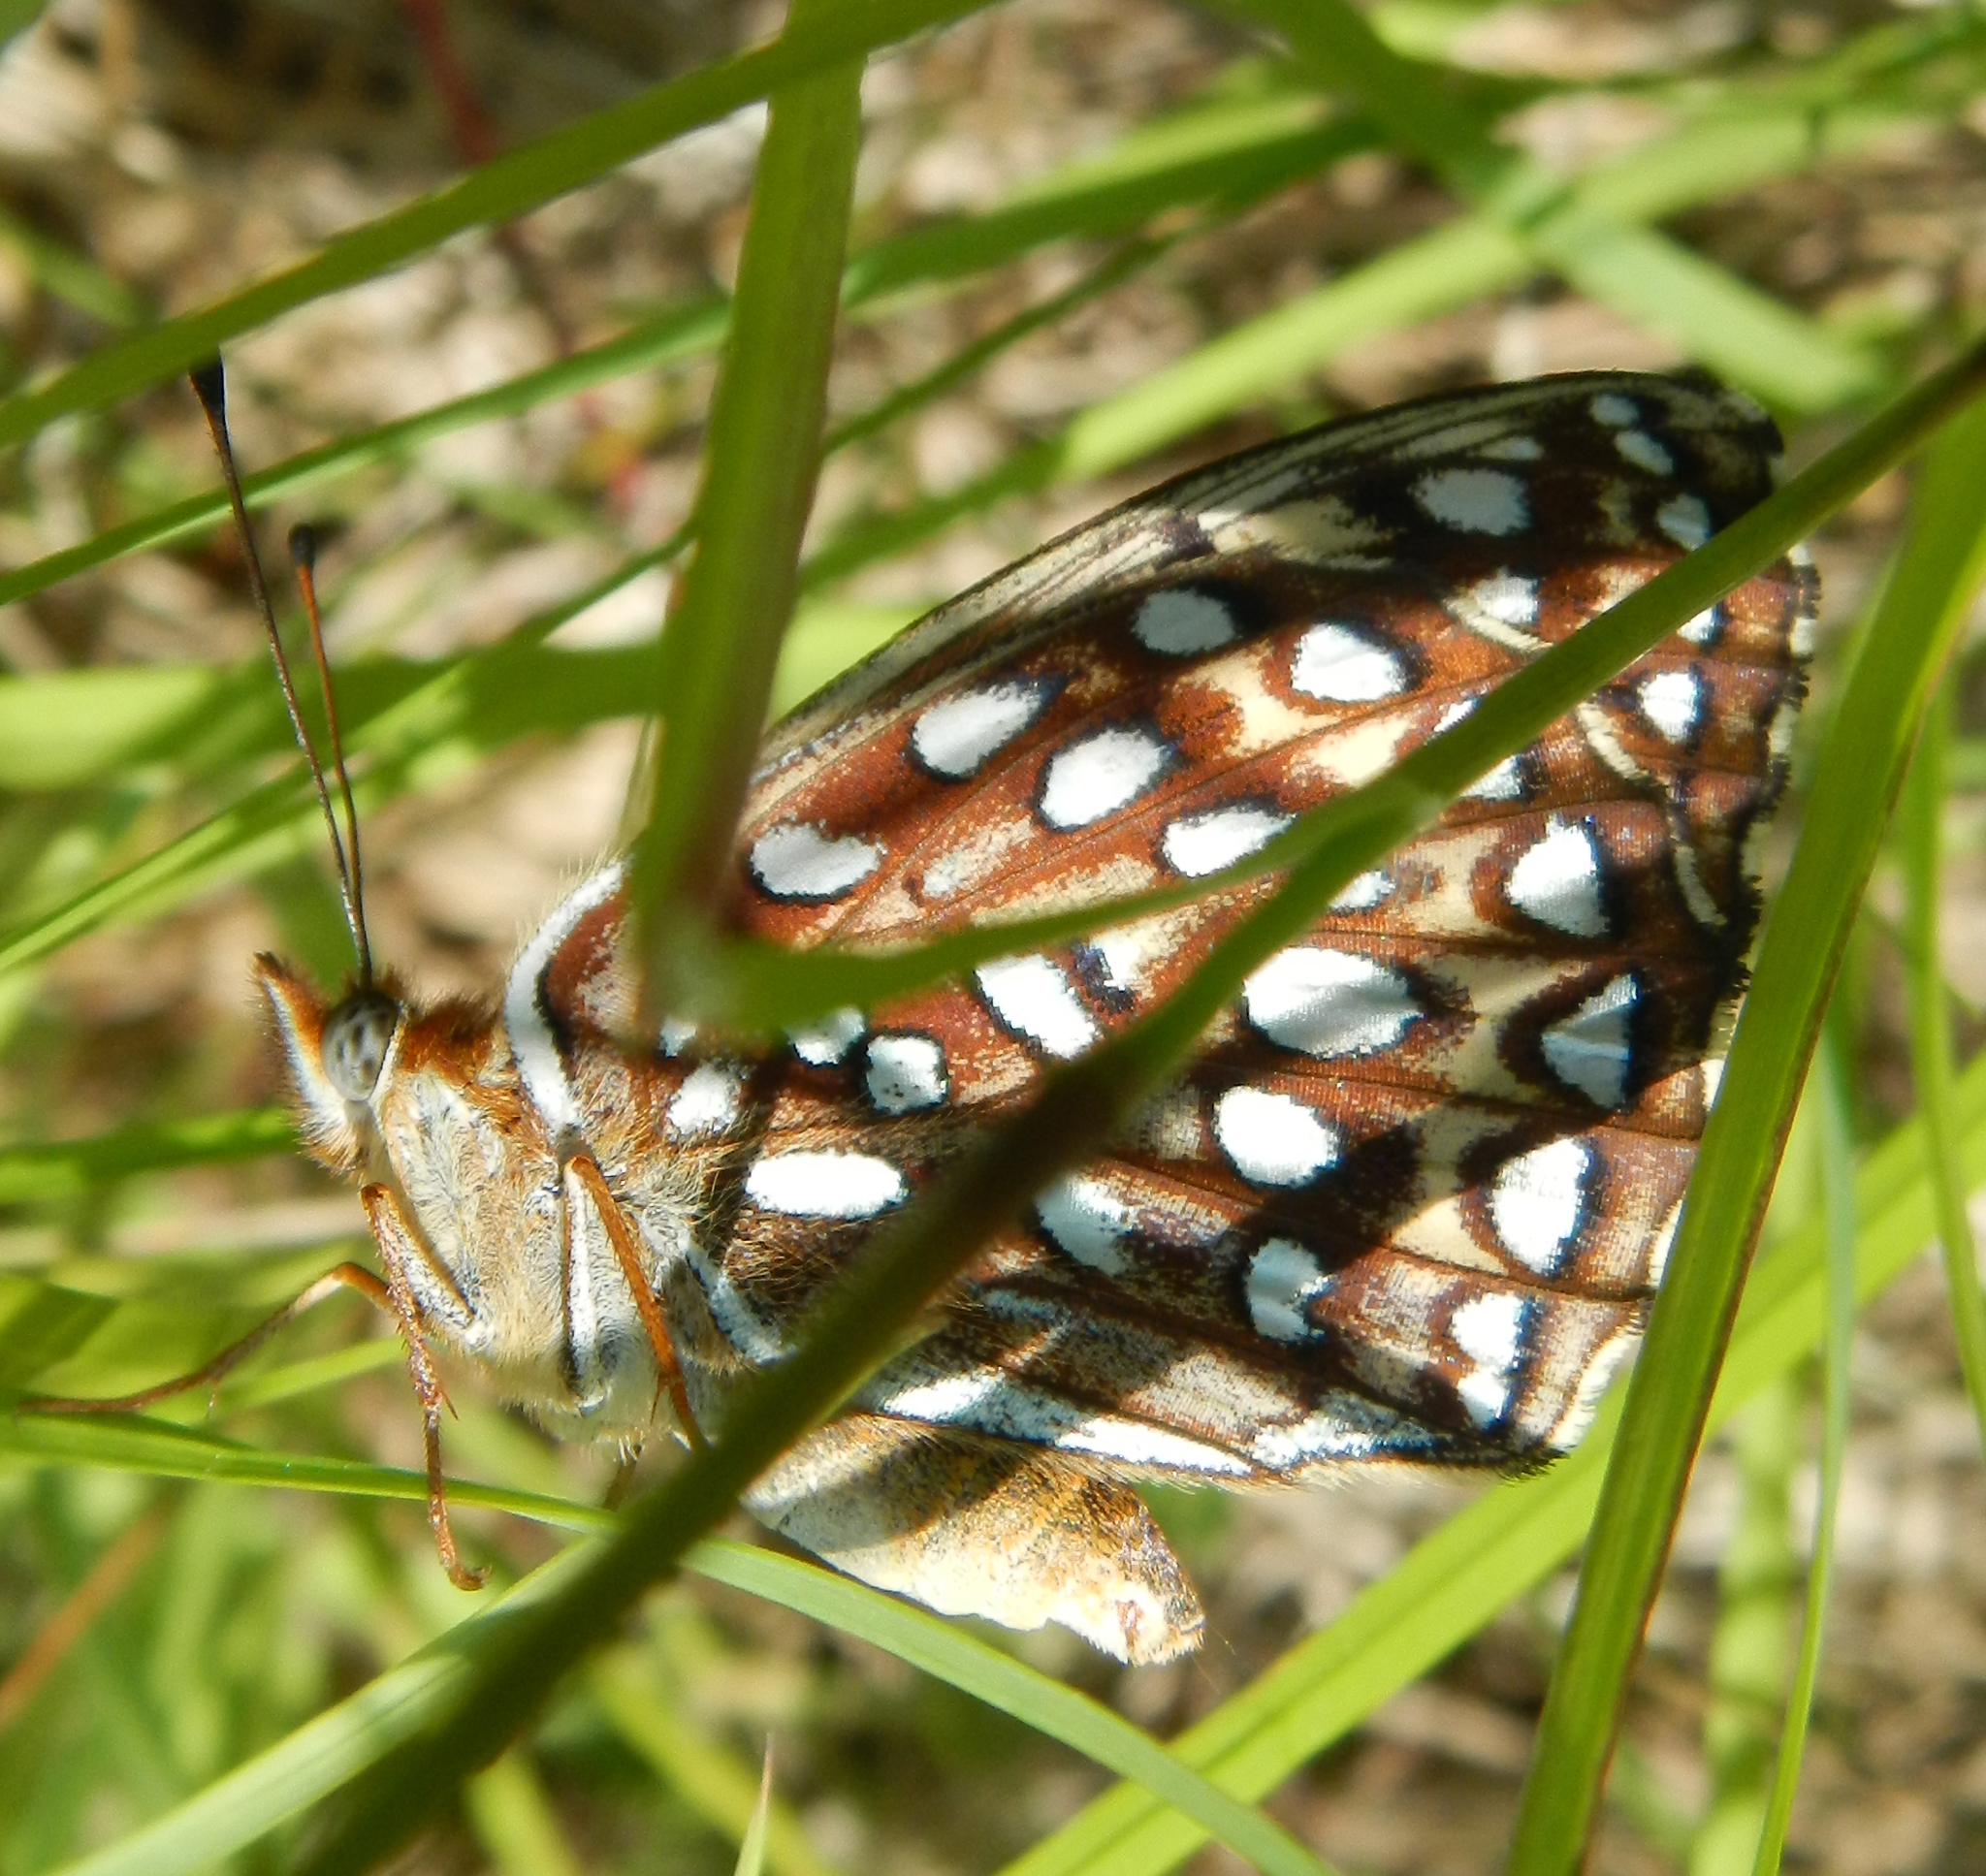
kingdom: Animalia
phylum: Arthropoda
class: Insecta
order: Lepidoptera
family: Nymphalidae
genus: Speyeria
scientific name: Speyeria atlantis
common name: Atlantis fritillary
